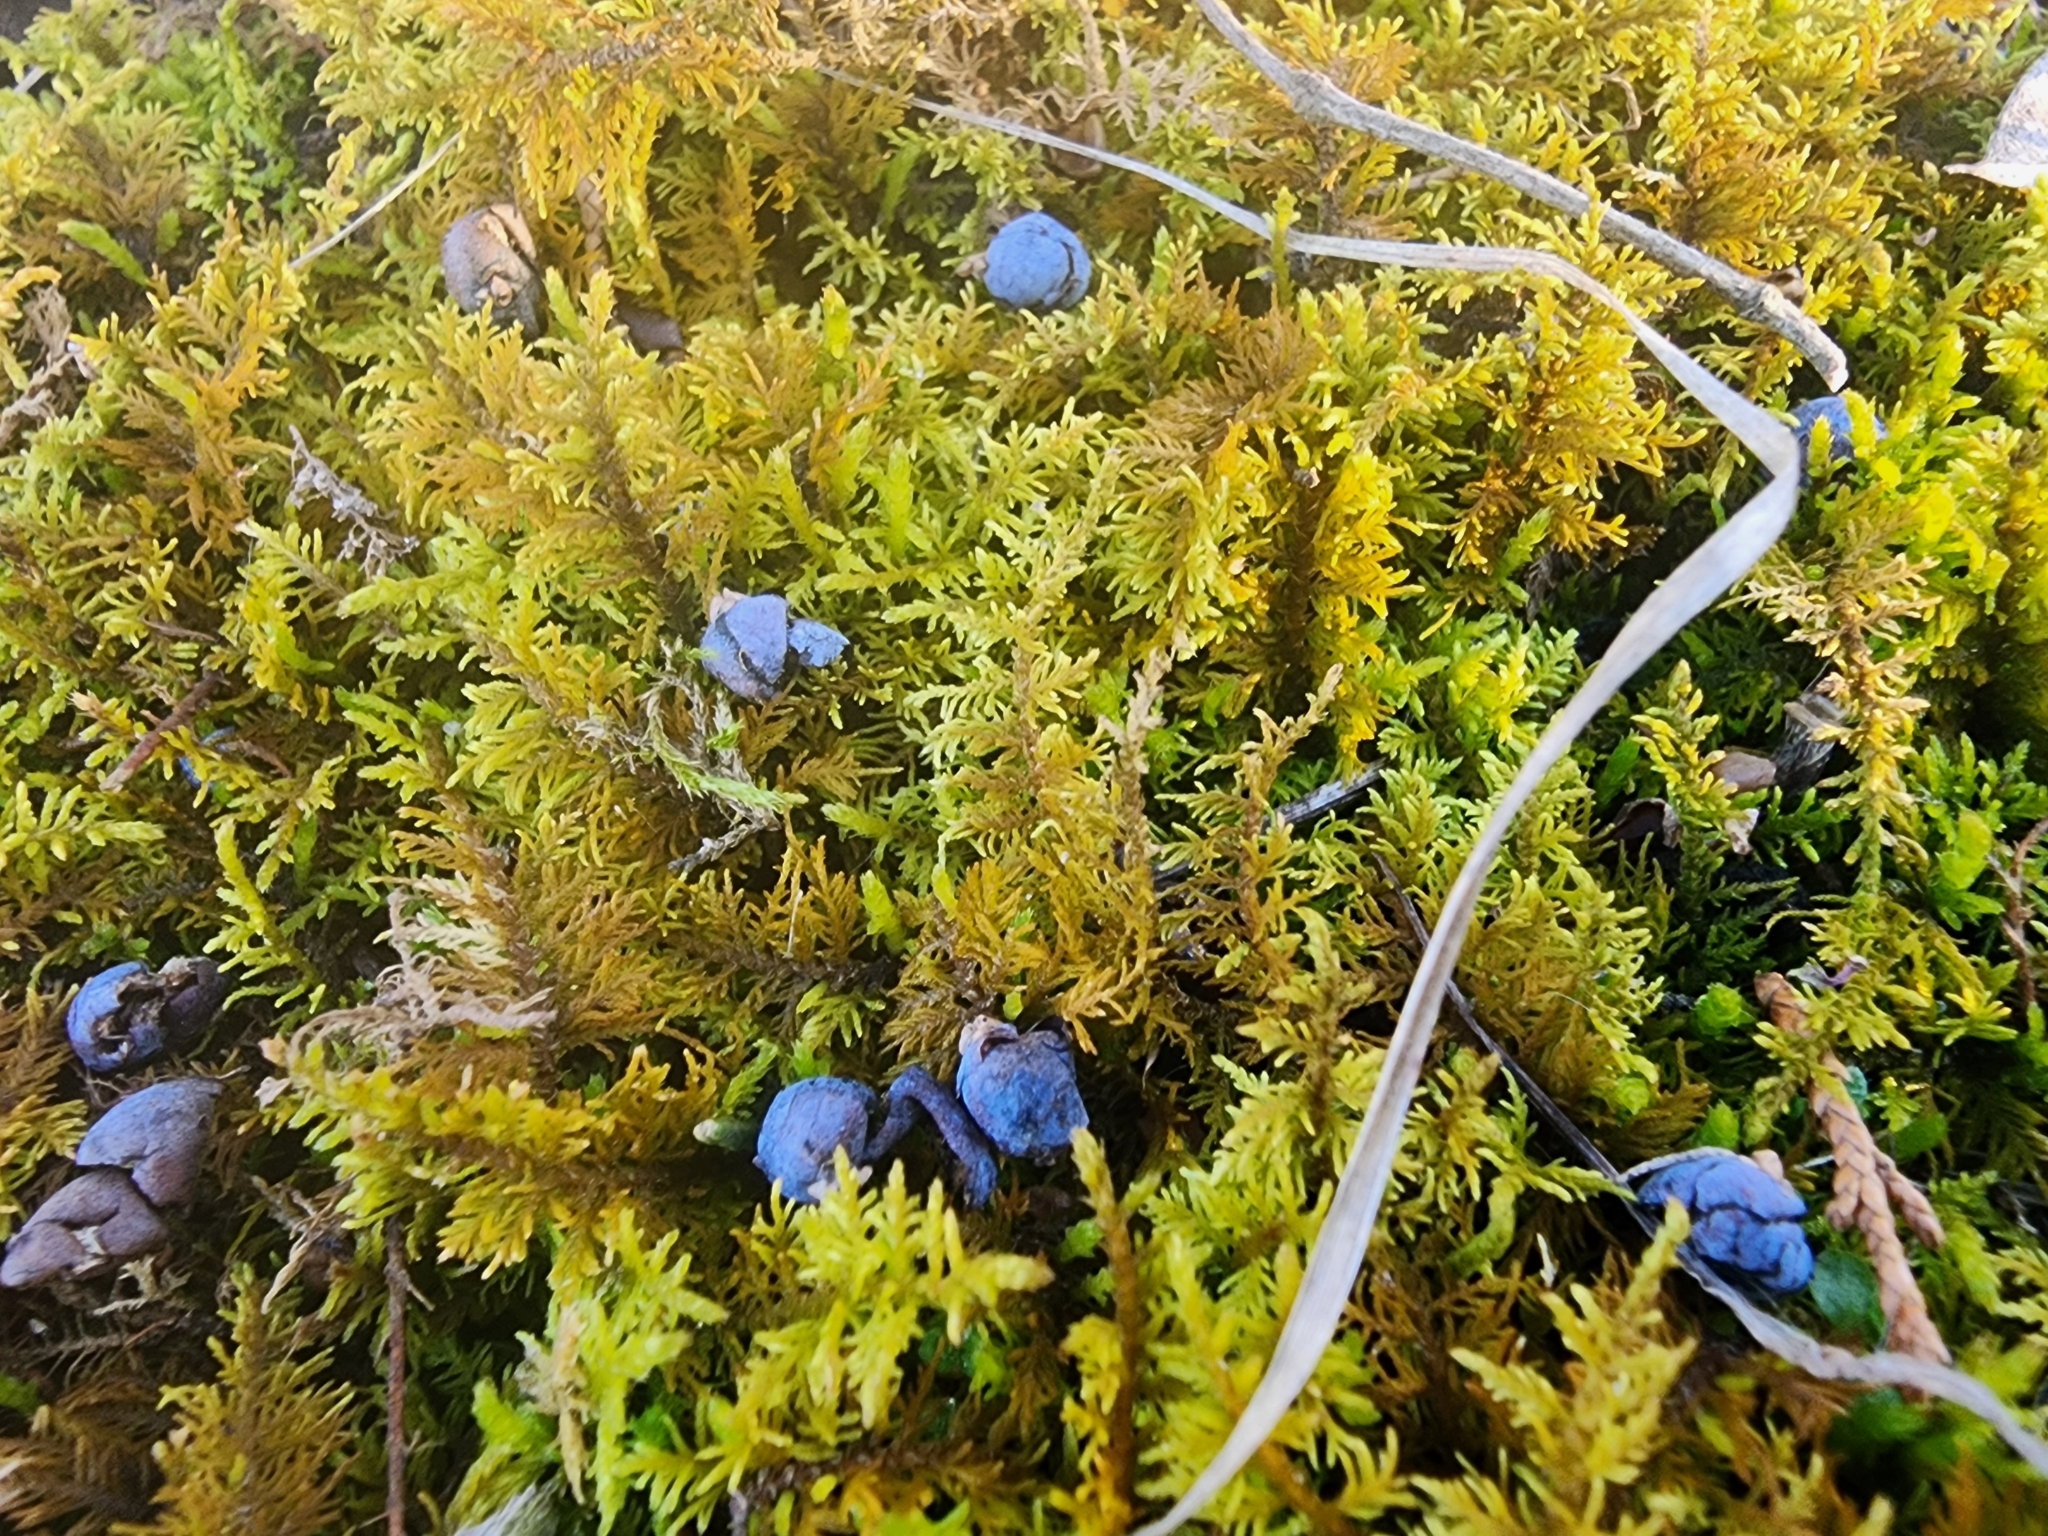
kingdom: Plantae
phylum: Bryophyta
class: Bryopsida
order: Hypnales
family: Thuidiaceae
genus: Thuidium
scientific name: Thuidium delicatulum
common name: Delicate fern moss
